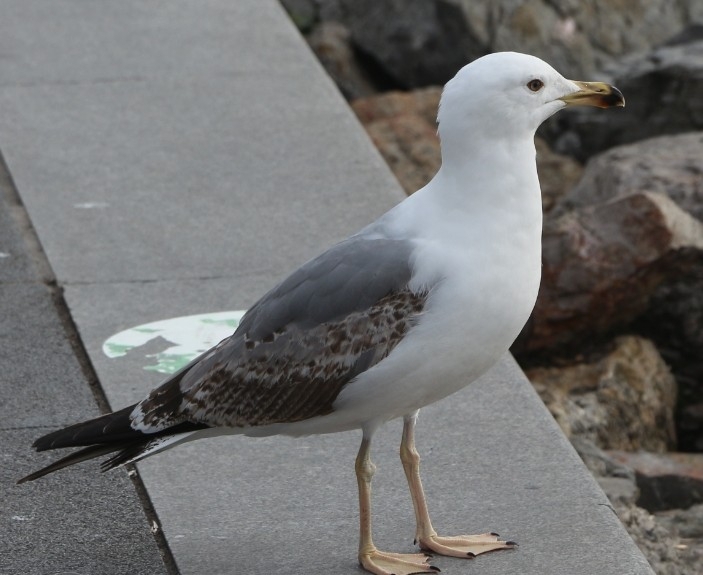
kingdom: Animalia
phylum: Chordata
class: Aves
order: Charadriiformes
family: Laridae
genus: Larus
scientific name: Larus michahellis
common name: Yellow-legged gull
